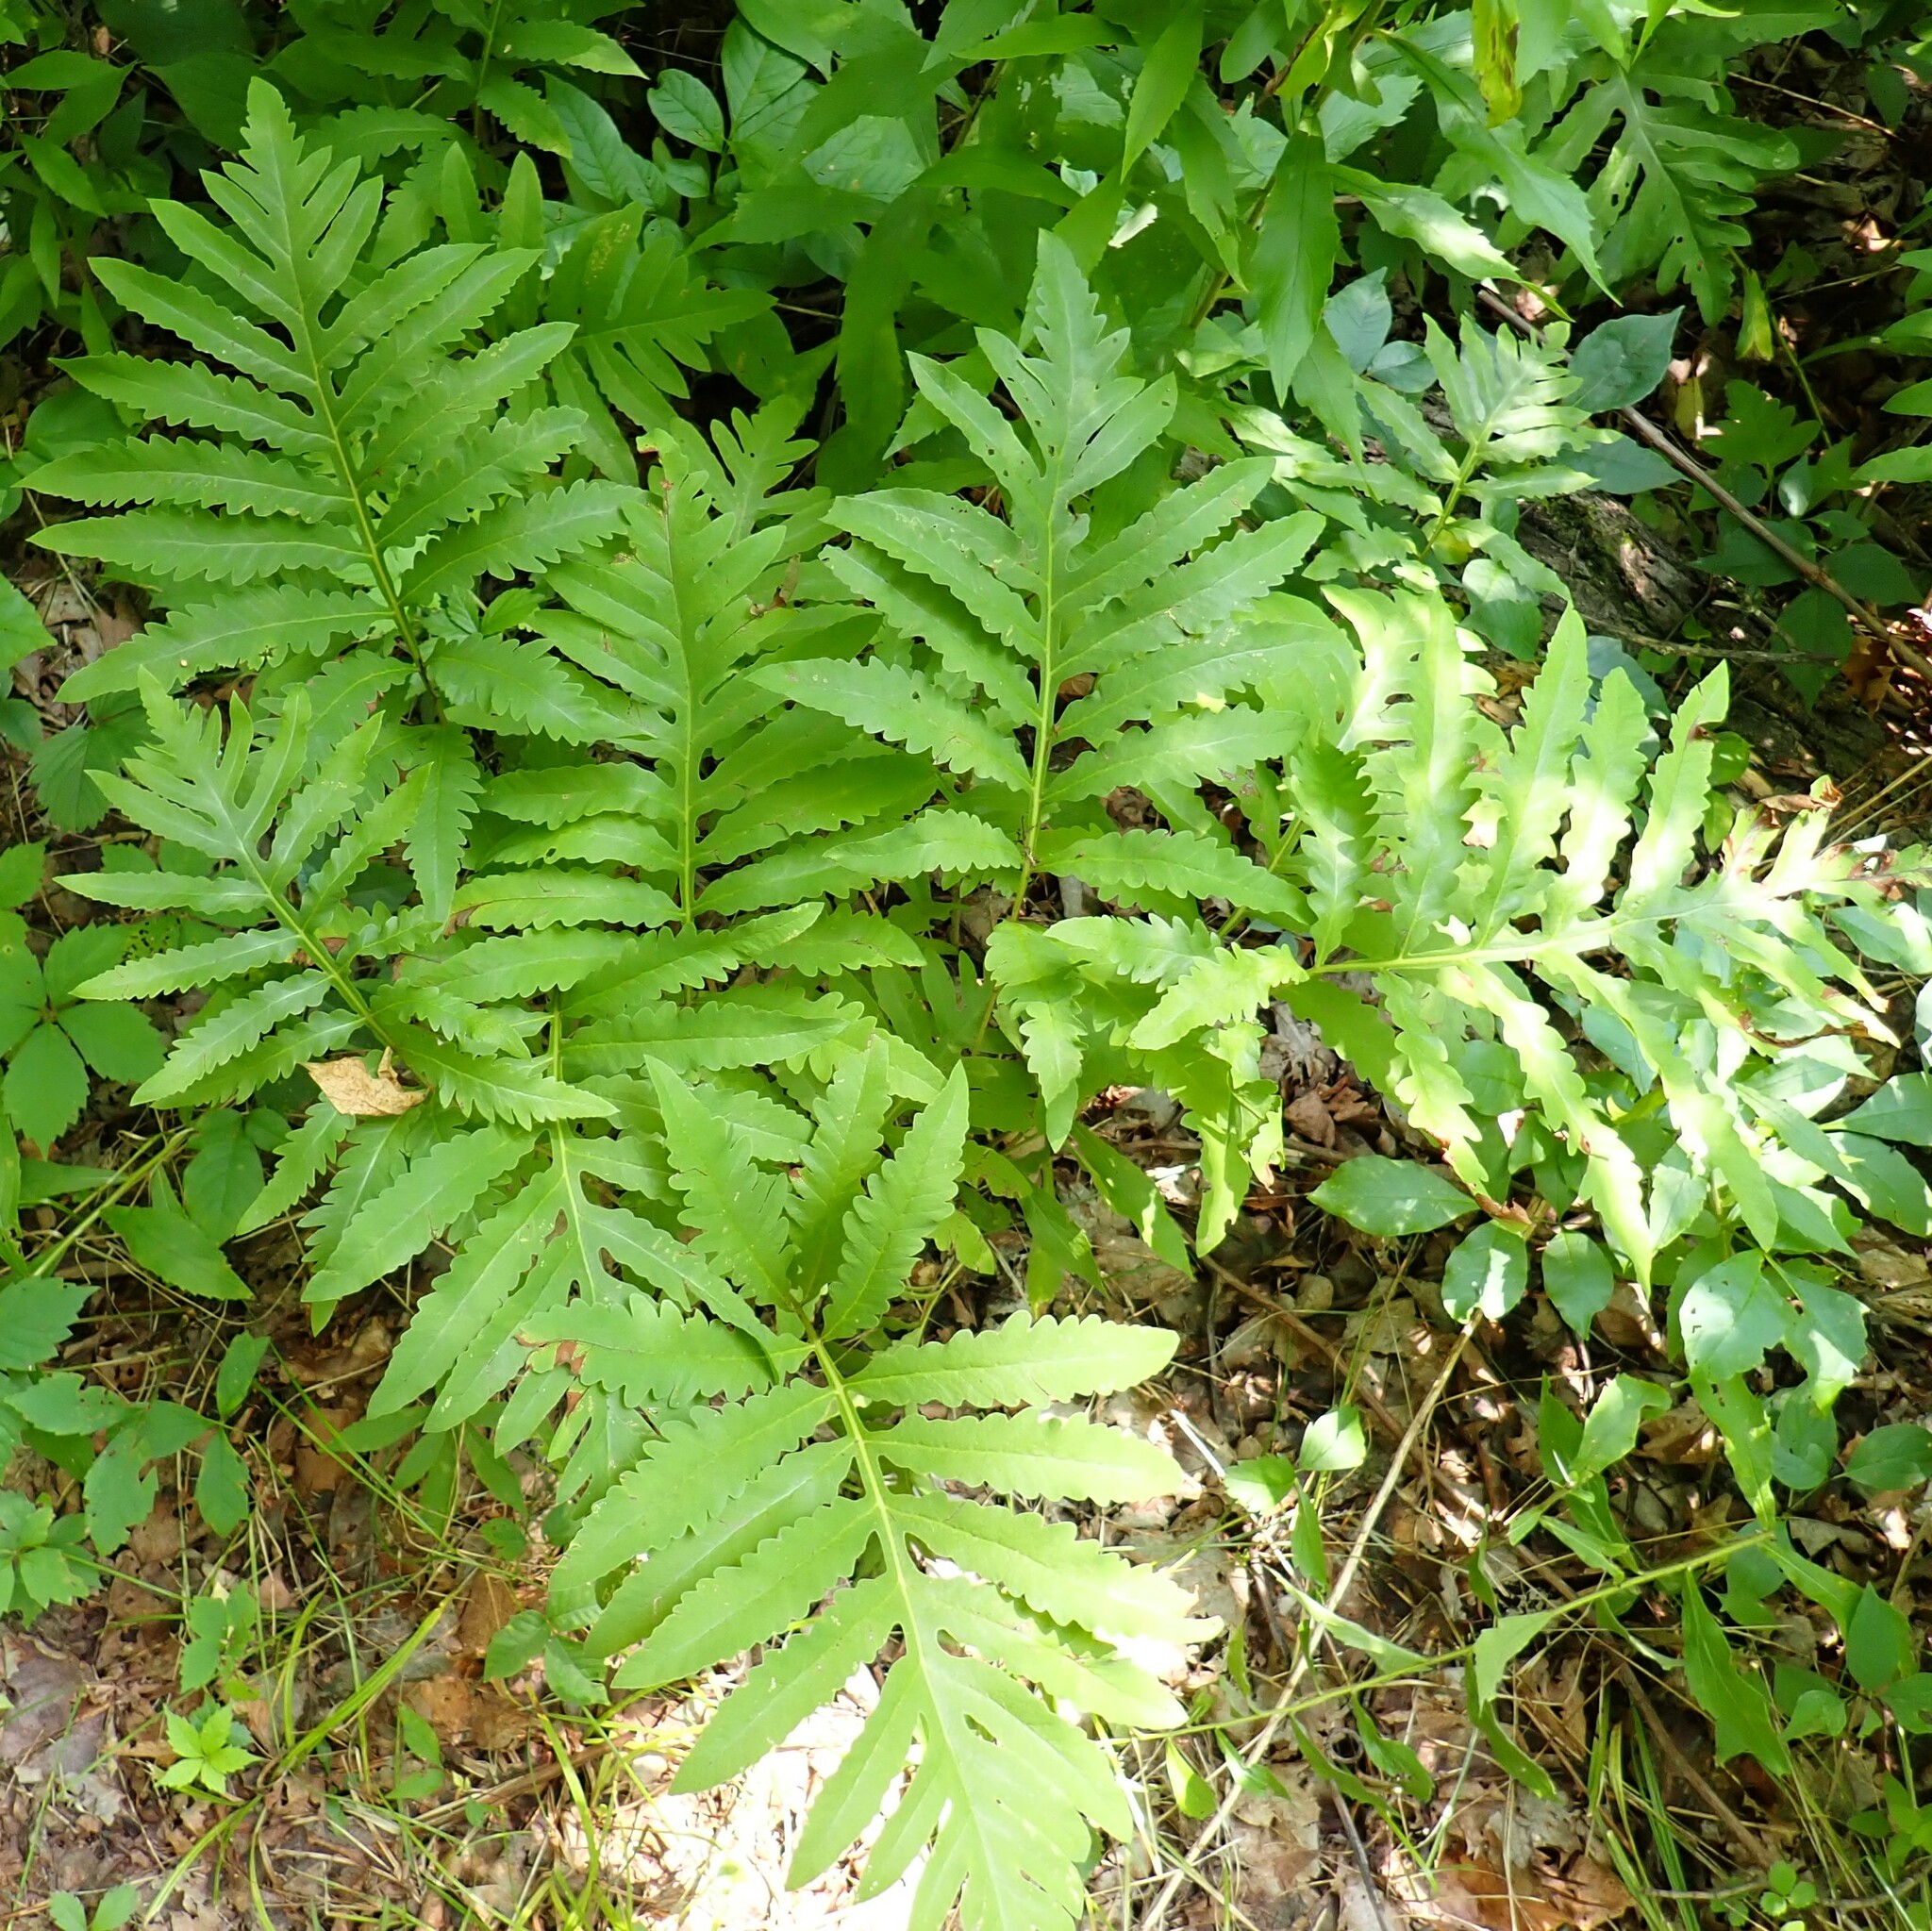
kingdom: Plantae
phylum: Tracheophyta
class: Polypodiopsida
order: Polypodiales
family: Onocleaceae
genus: Onoclea
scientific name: Onoclea sensibilis
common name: Sensitive fern
